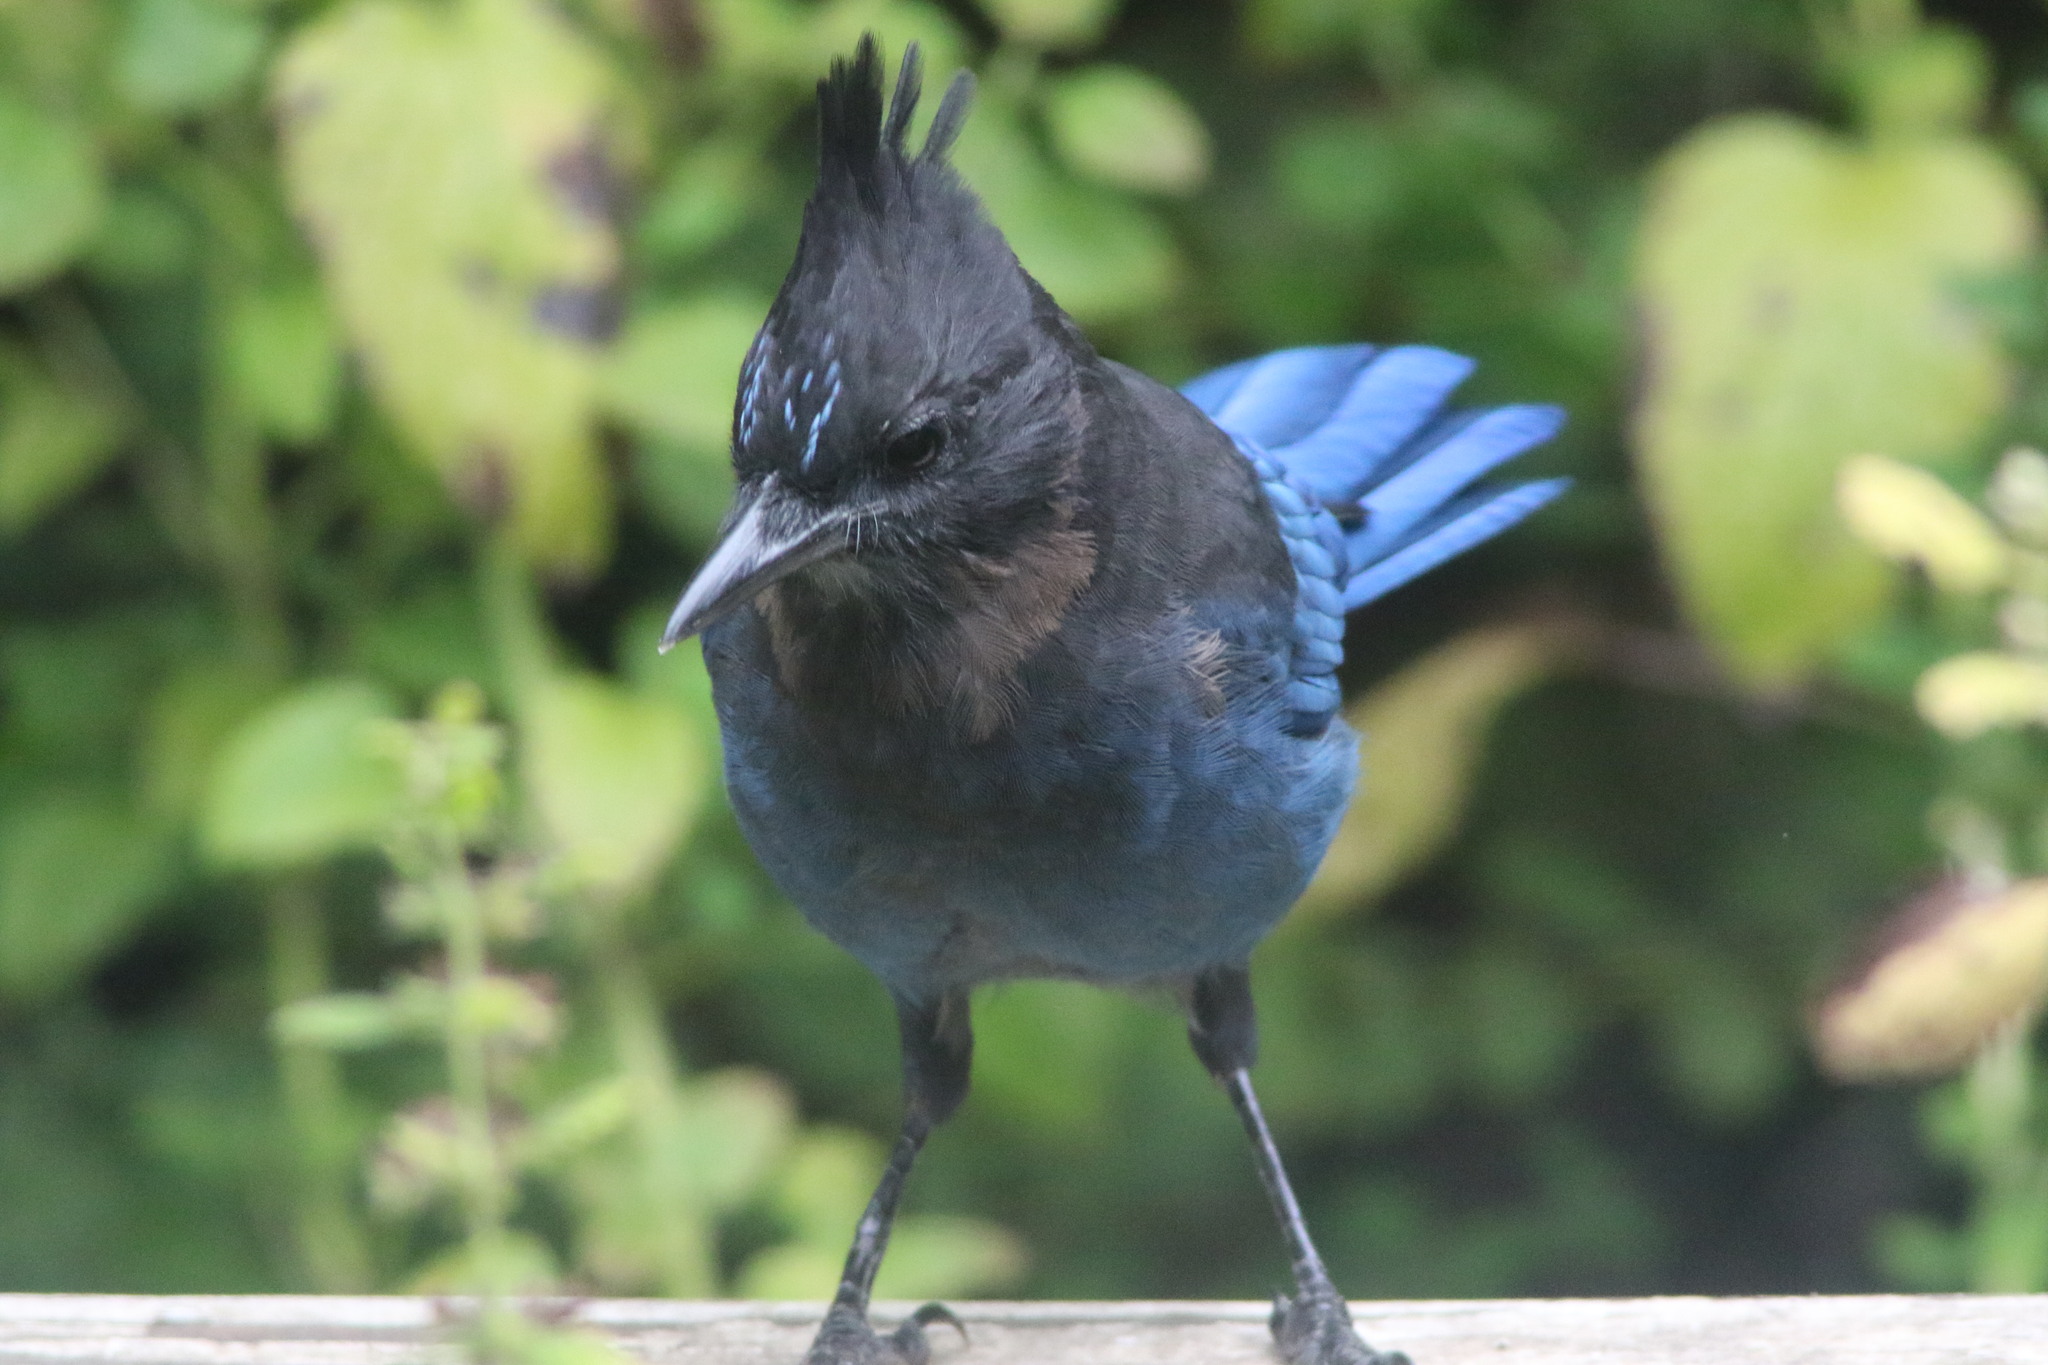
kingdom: Animalia
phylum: Chordata
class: Aves
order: Passeriformes
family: Corvidae
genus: Cyanocitta
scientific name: Cyanocitta stelleri
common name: Steller's jay
